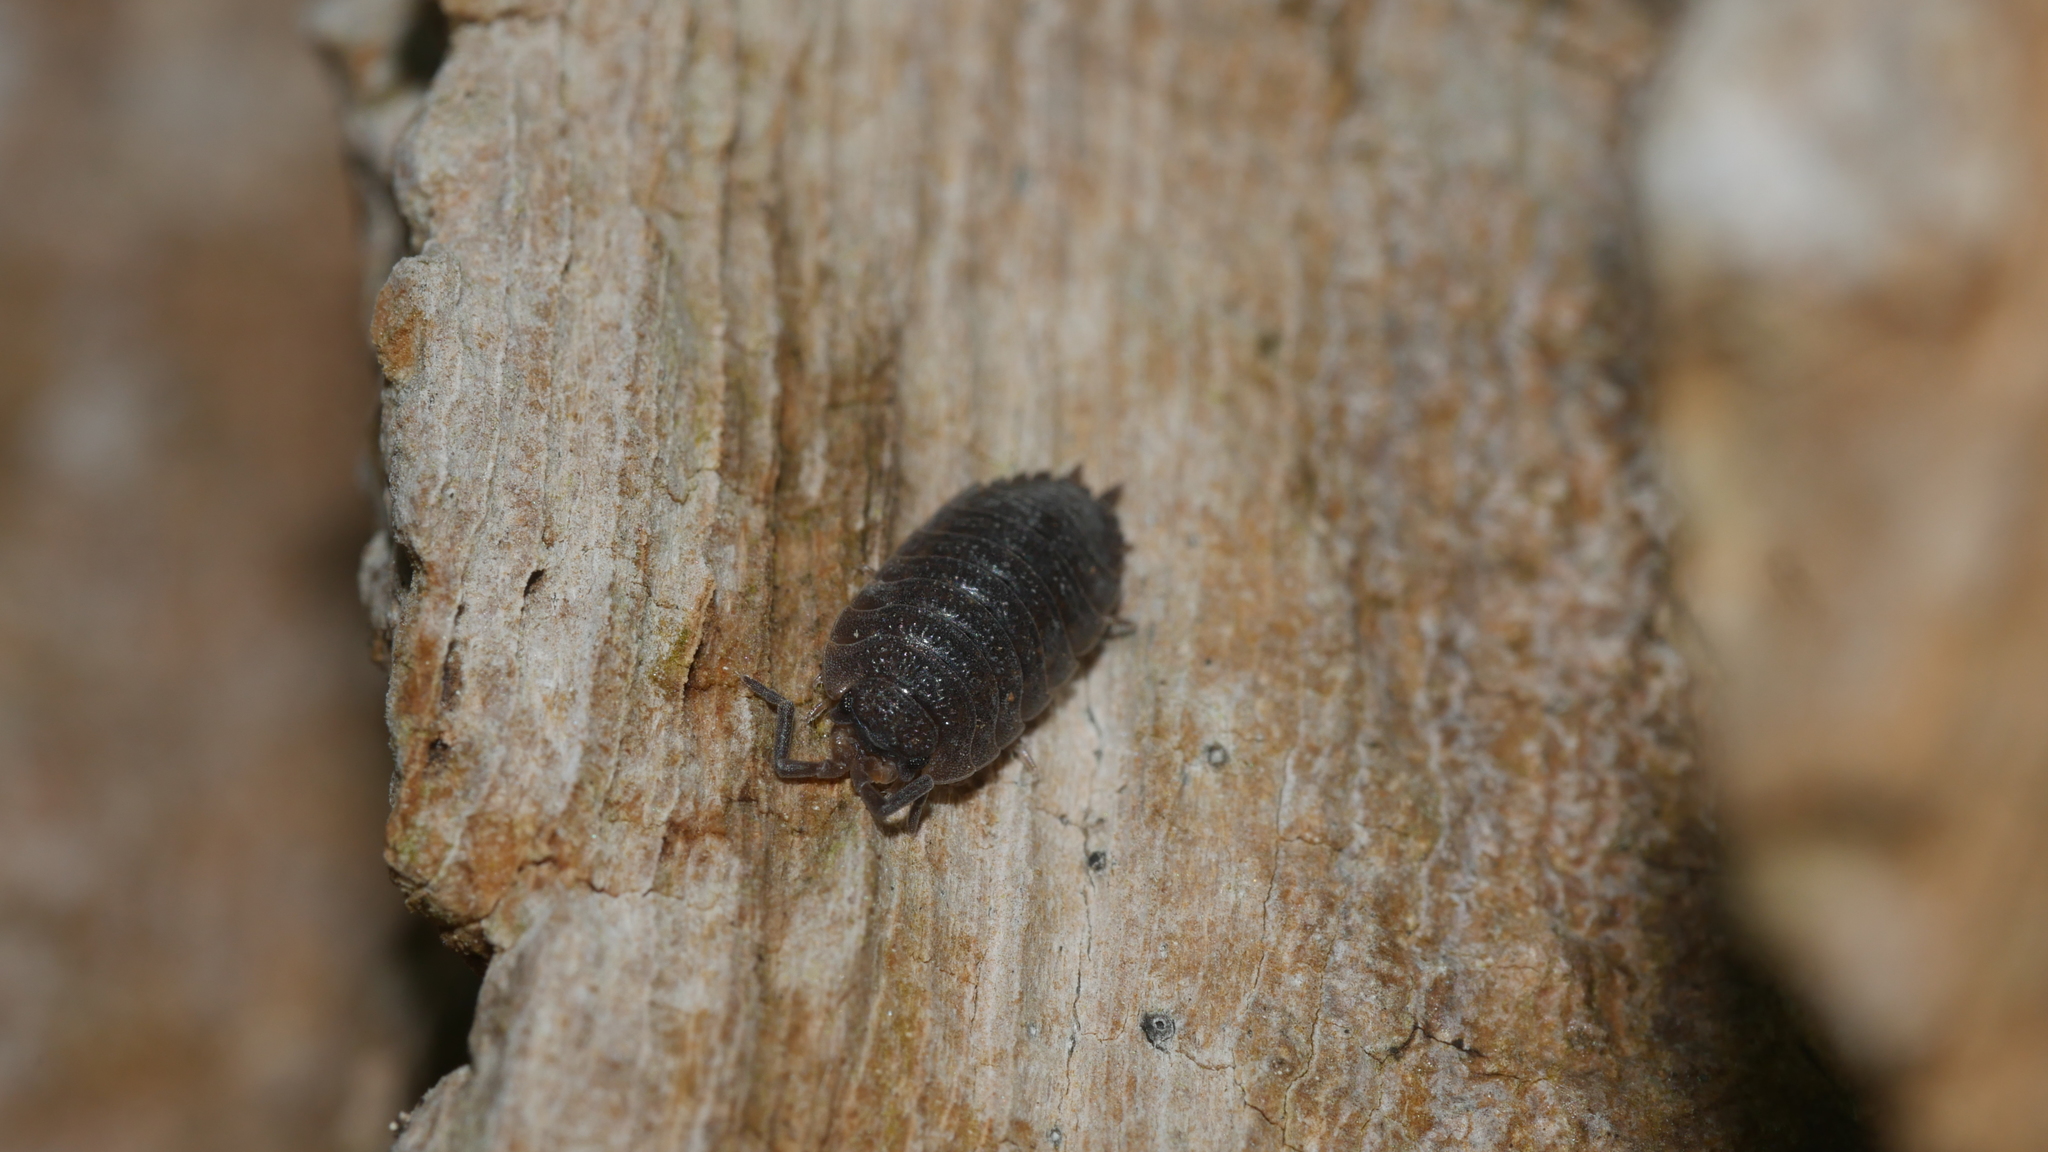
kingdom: Animalia
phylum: Arthropoda
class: Malacostraca
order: Isopoda
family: Porcellionidae
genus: Porcellio
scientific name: Porcellio scaber
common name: Common rough woodlouse
